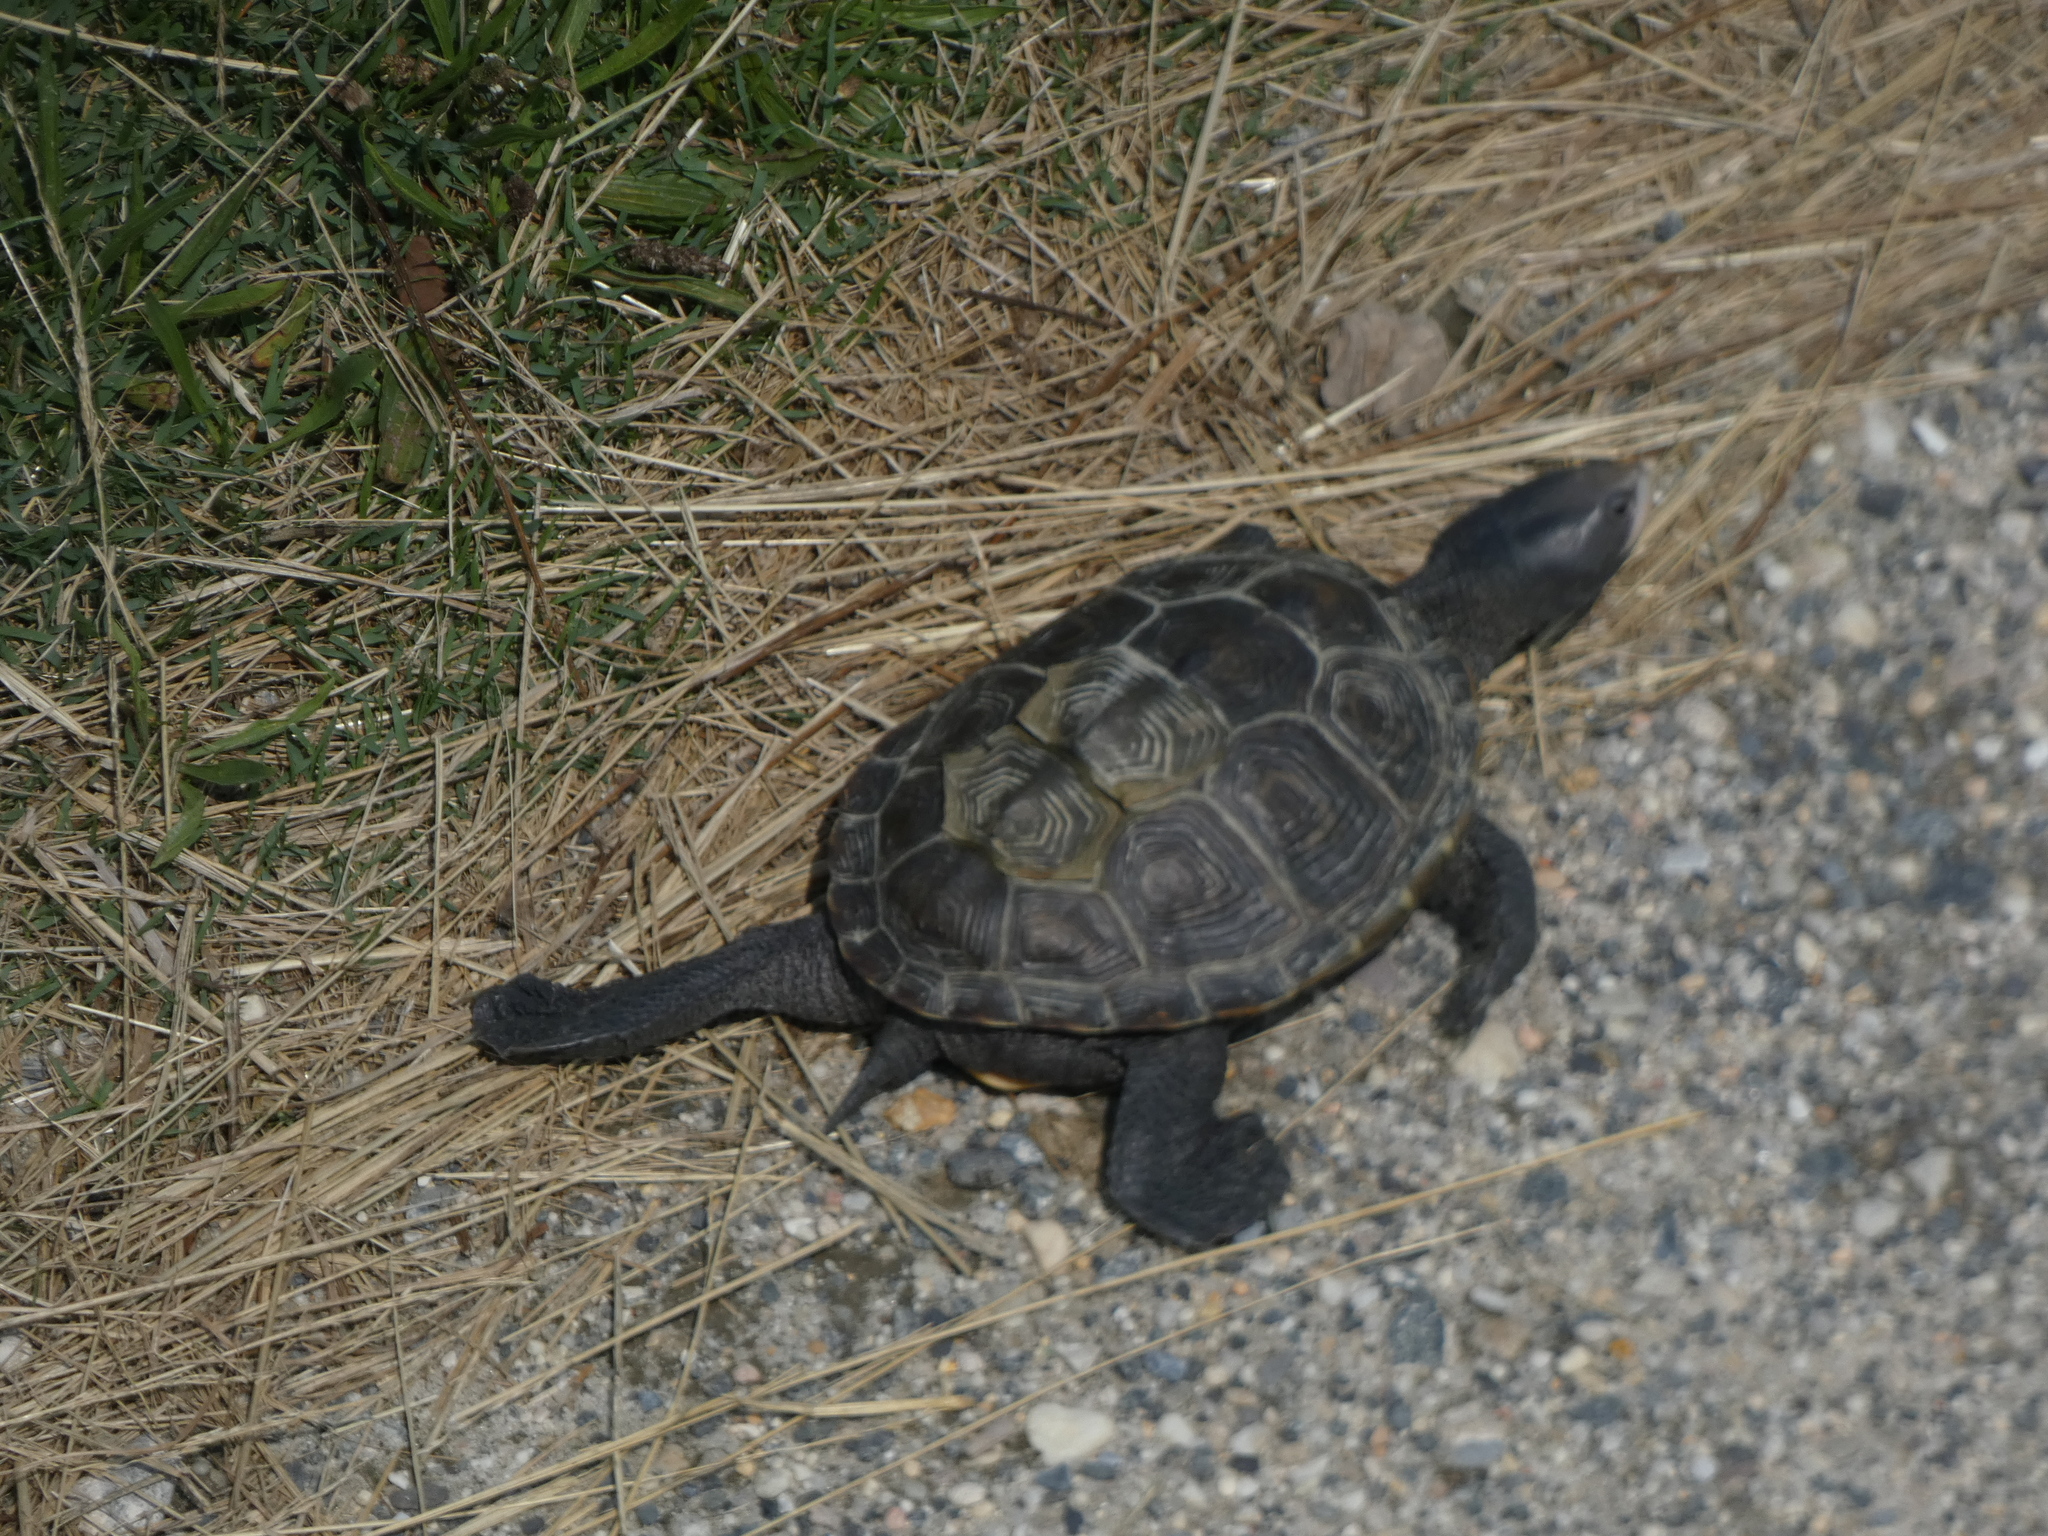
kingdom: Animalia
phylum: Chordata
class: Testudines
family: Emydidae
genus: Malaclemys
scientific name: Malaclemys terrapin
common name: Diamondback terrapin
